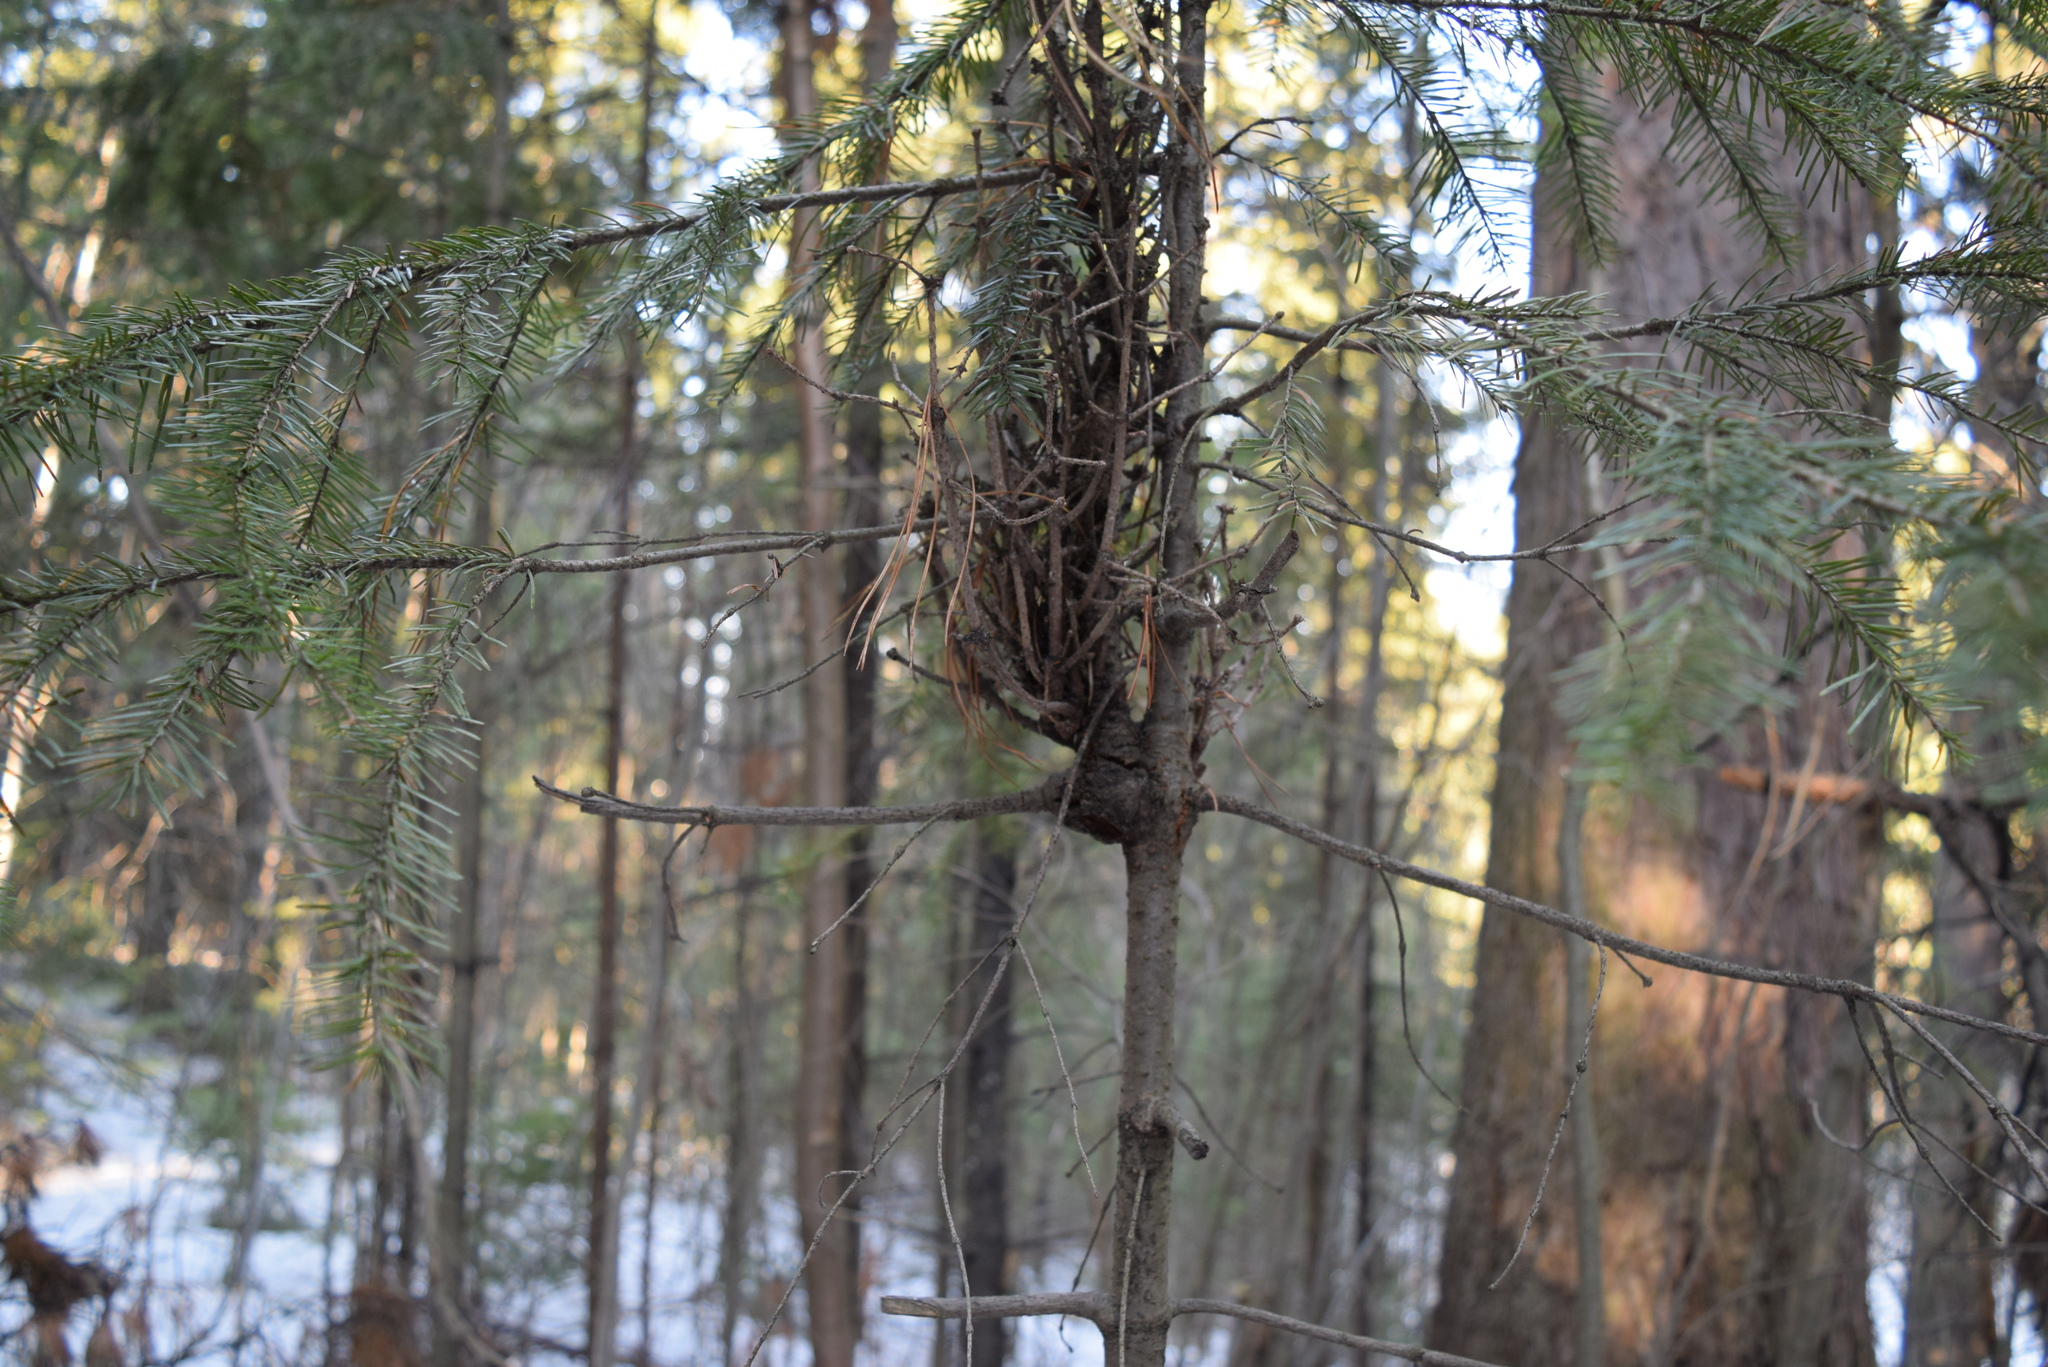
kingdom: Fungi
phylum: Basidiomycota
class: Pucciniomycetes
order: Pucciniales
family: Pucciniastraceae
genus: Melampsorella
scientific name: Melampsorella elatina
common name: Fir broom rust
